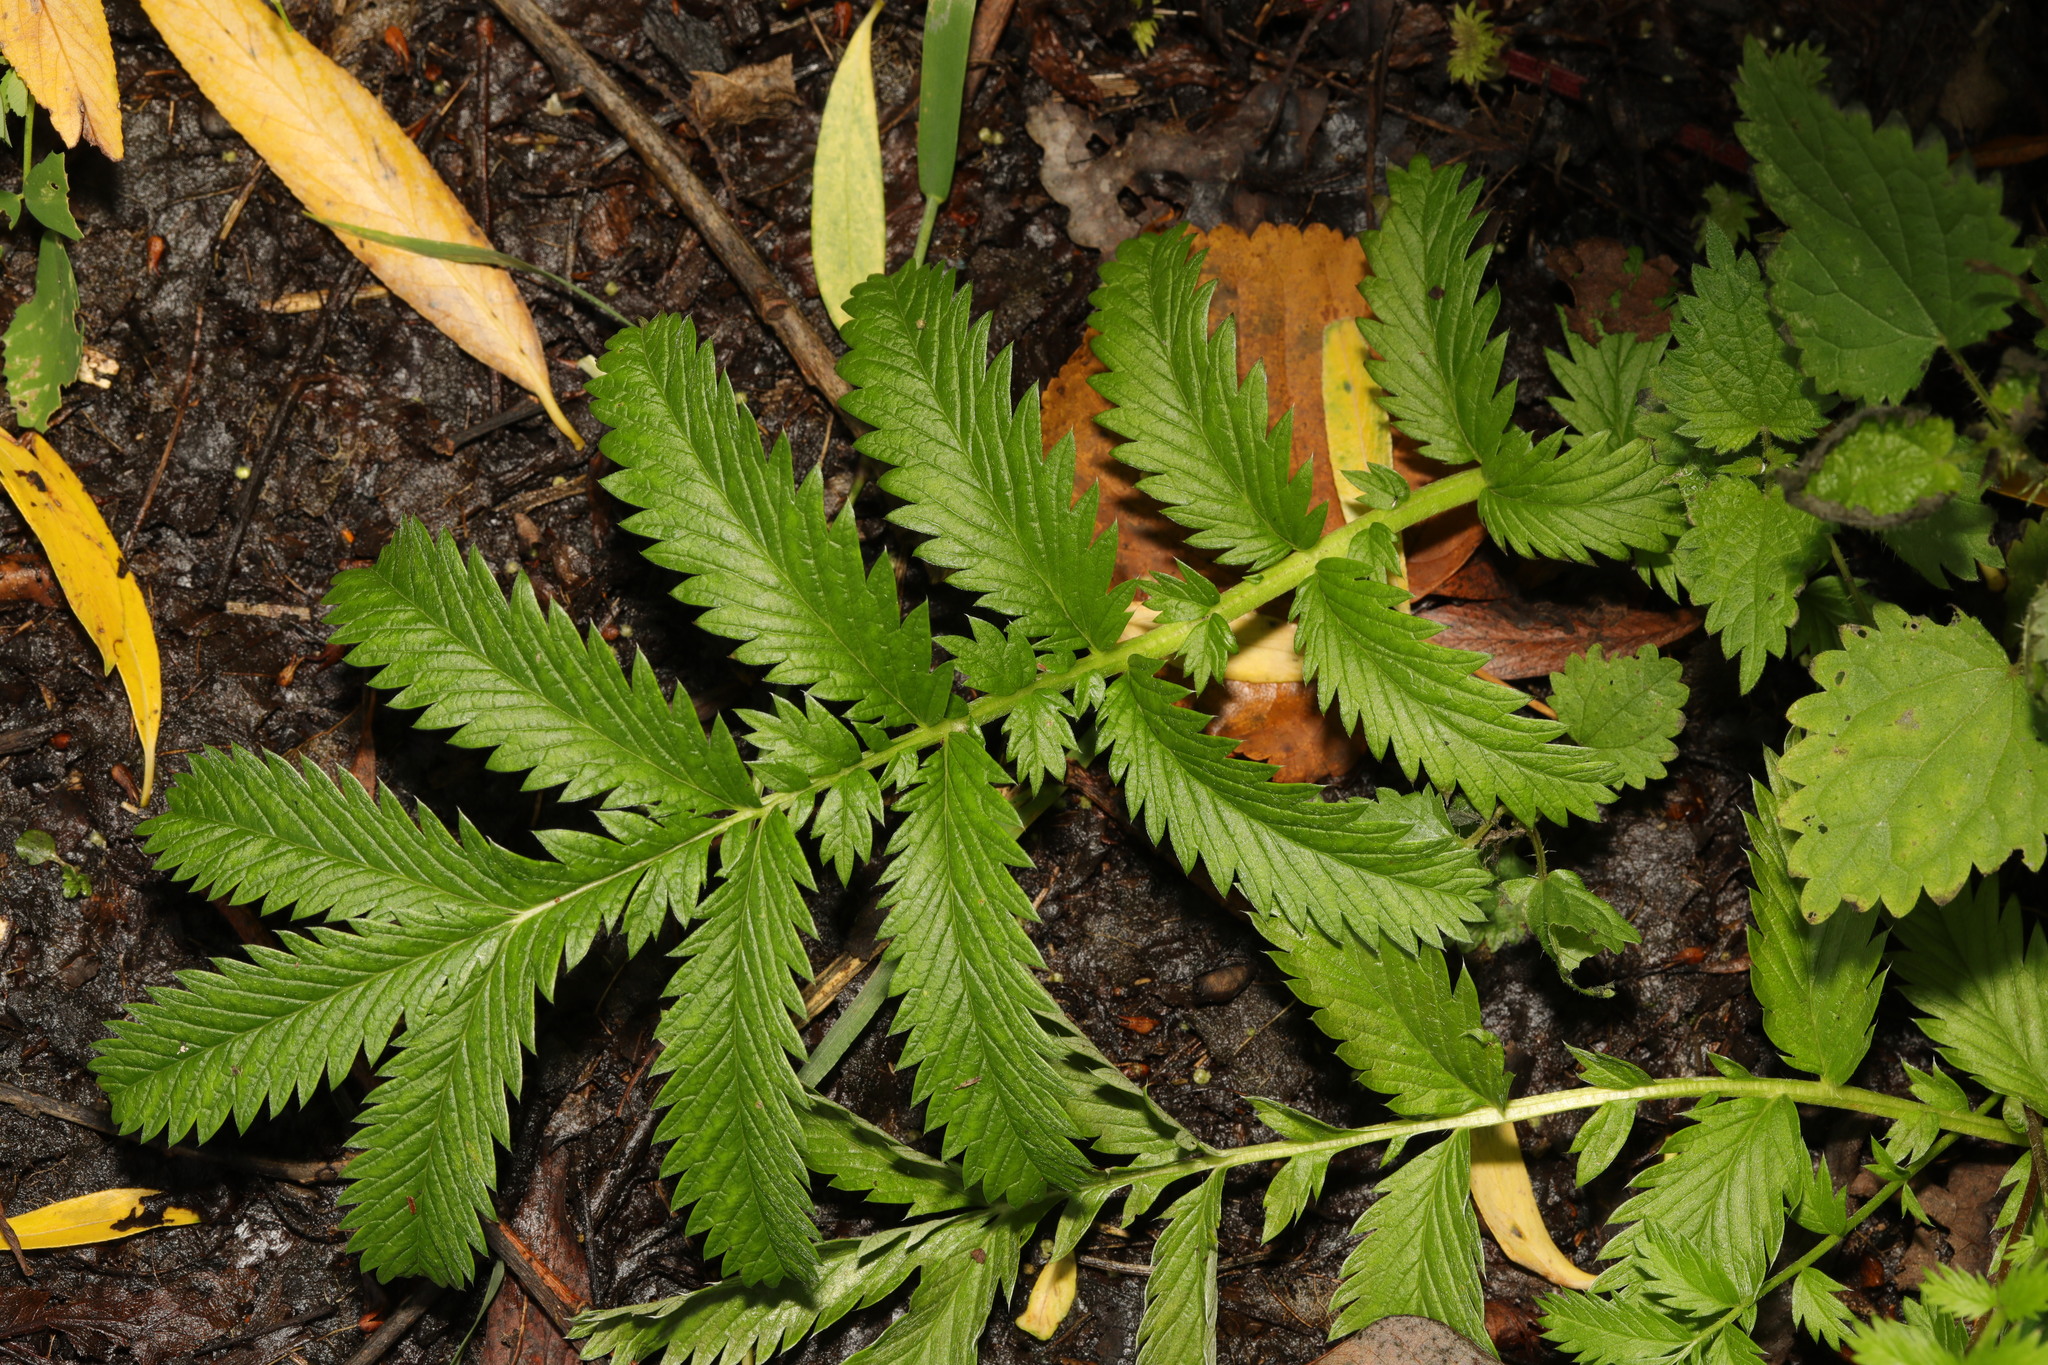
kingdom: Plantae
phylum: Tracheophyta
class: Magnoliopsida
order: Rosales
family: Rosaceae
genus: Argentina
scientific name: Argentina anserina
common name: Common silverweed
